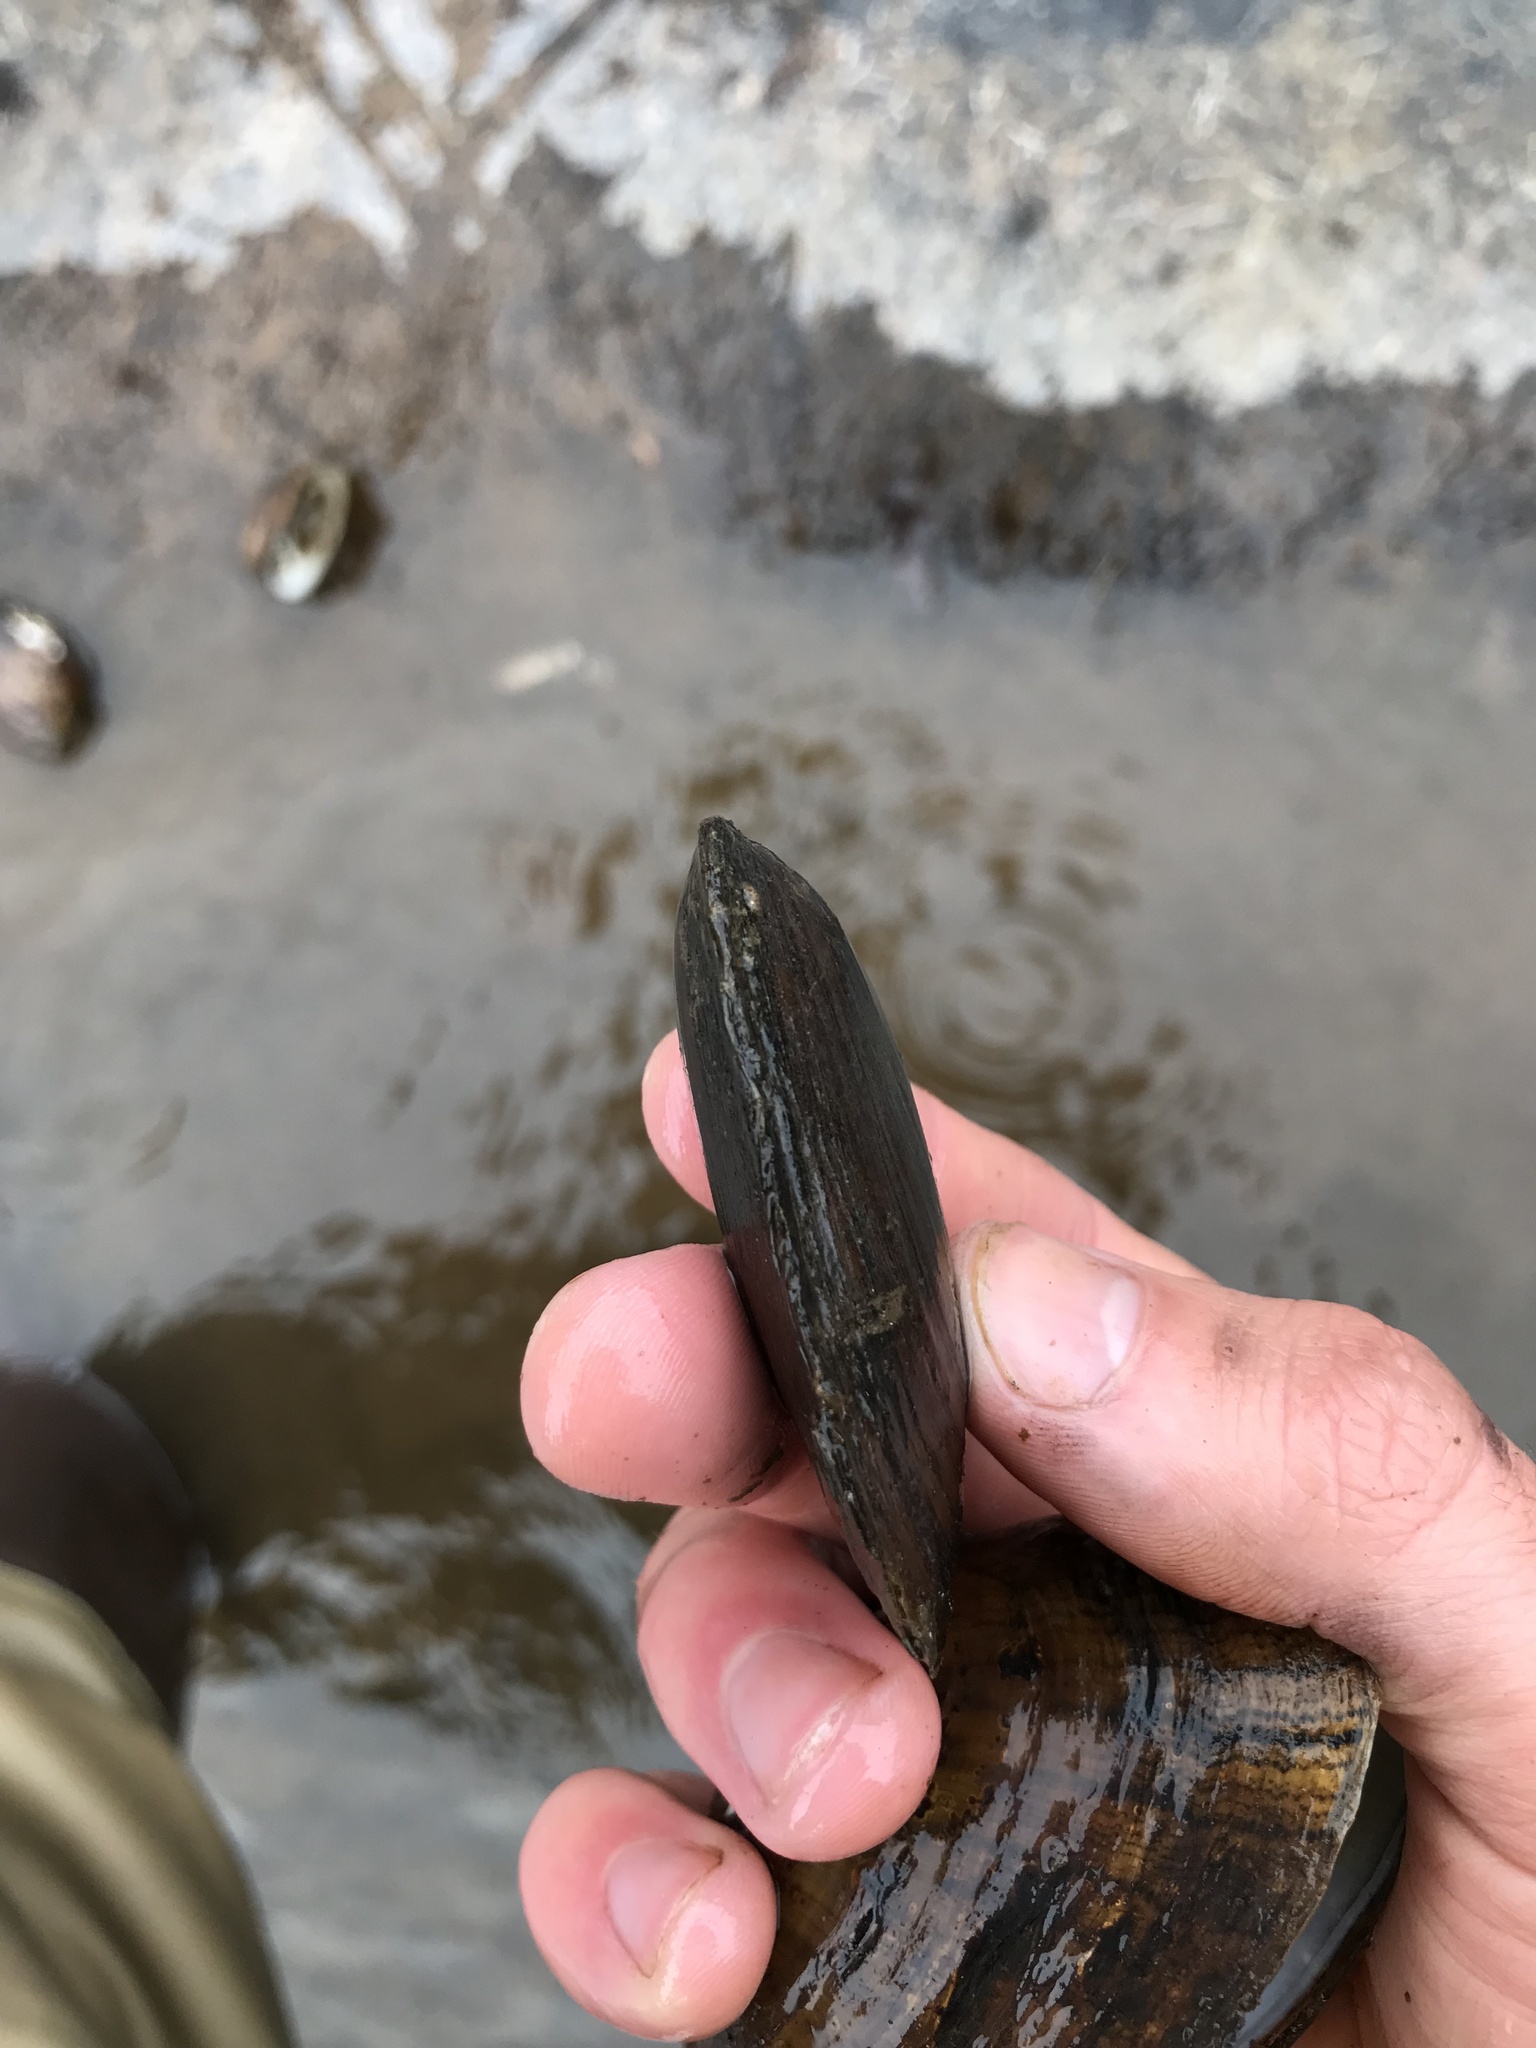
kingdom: Animalia
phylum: Mollusca
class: Bivalvia
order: Unionida
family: Unionidae
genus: Eurynia
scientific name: Eurynia dilatata
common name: Spike
